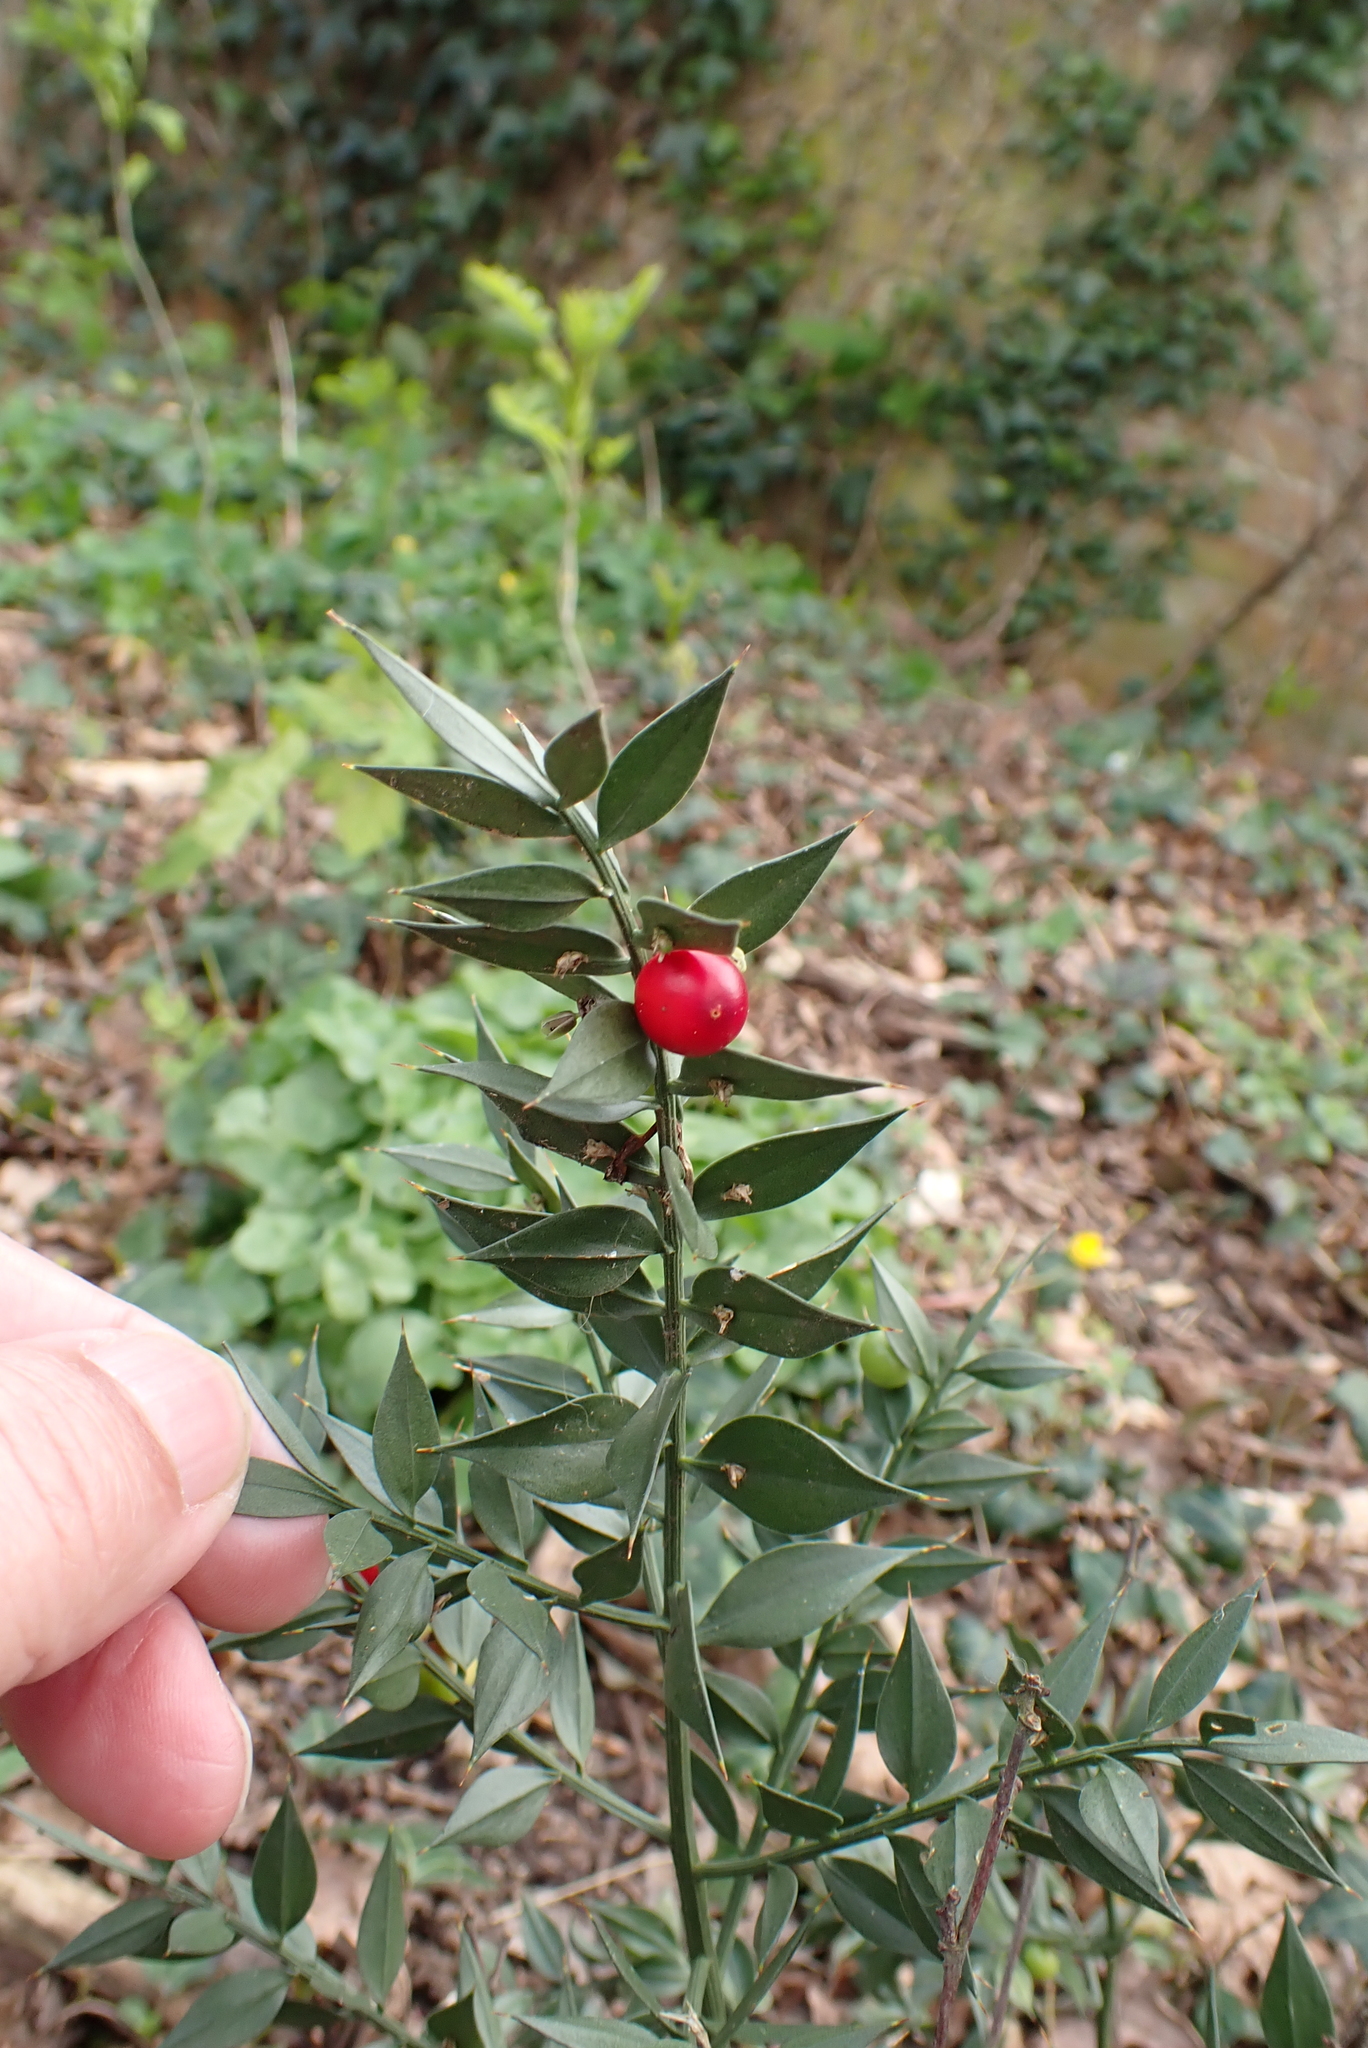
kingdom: Plantae
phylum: Tracheophyta
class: Liliopsida
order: Asparagales
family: Asparagaceae
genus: Ruscus
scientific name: Ruscus aculeatus
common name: Butcher's-broom
